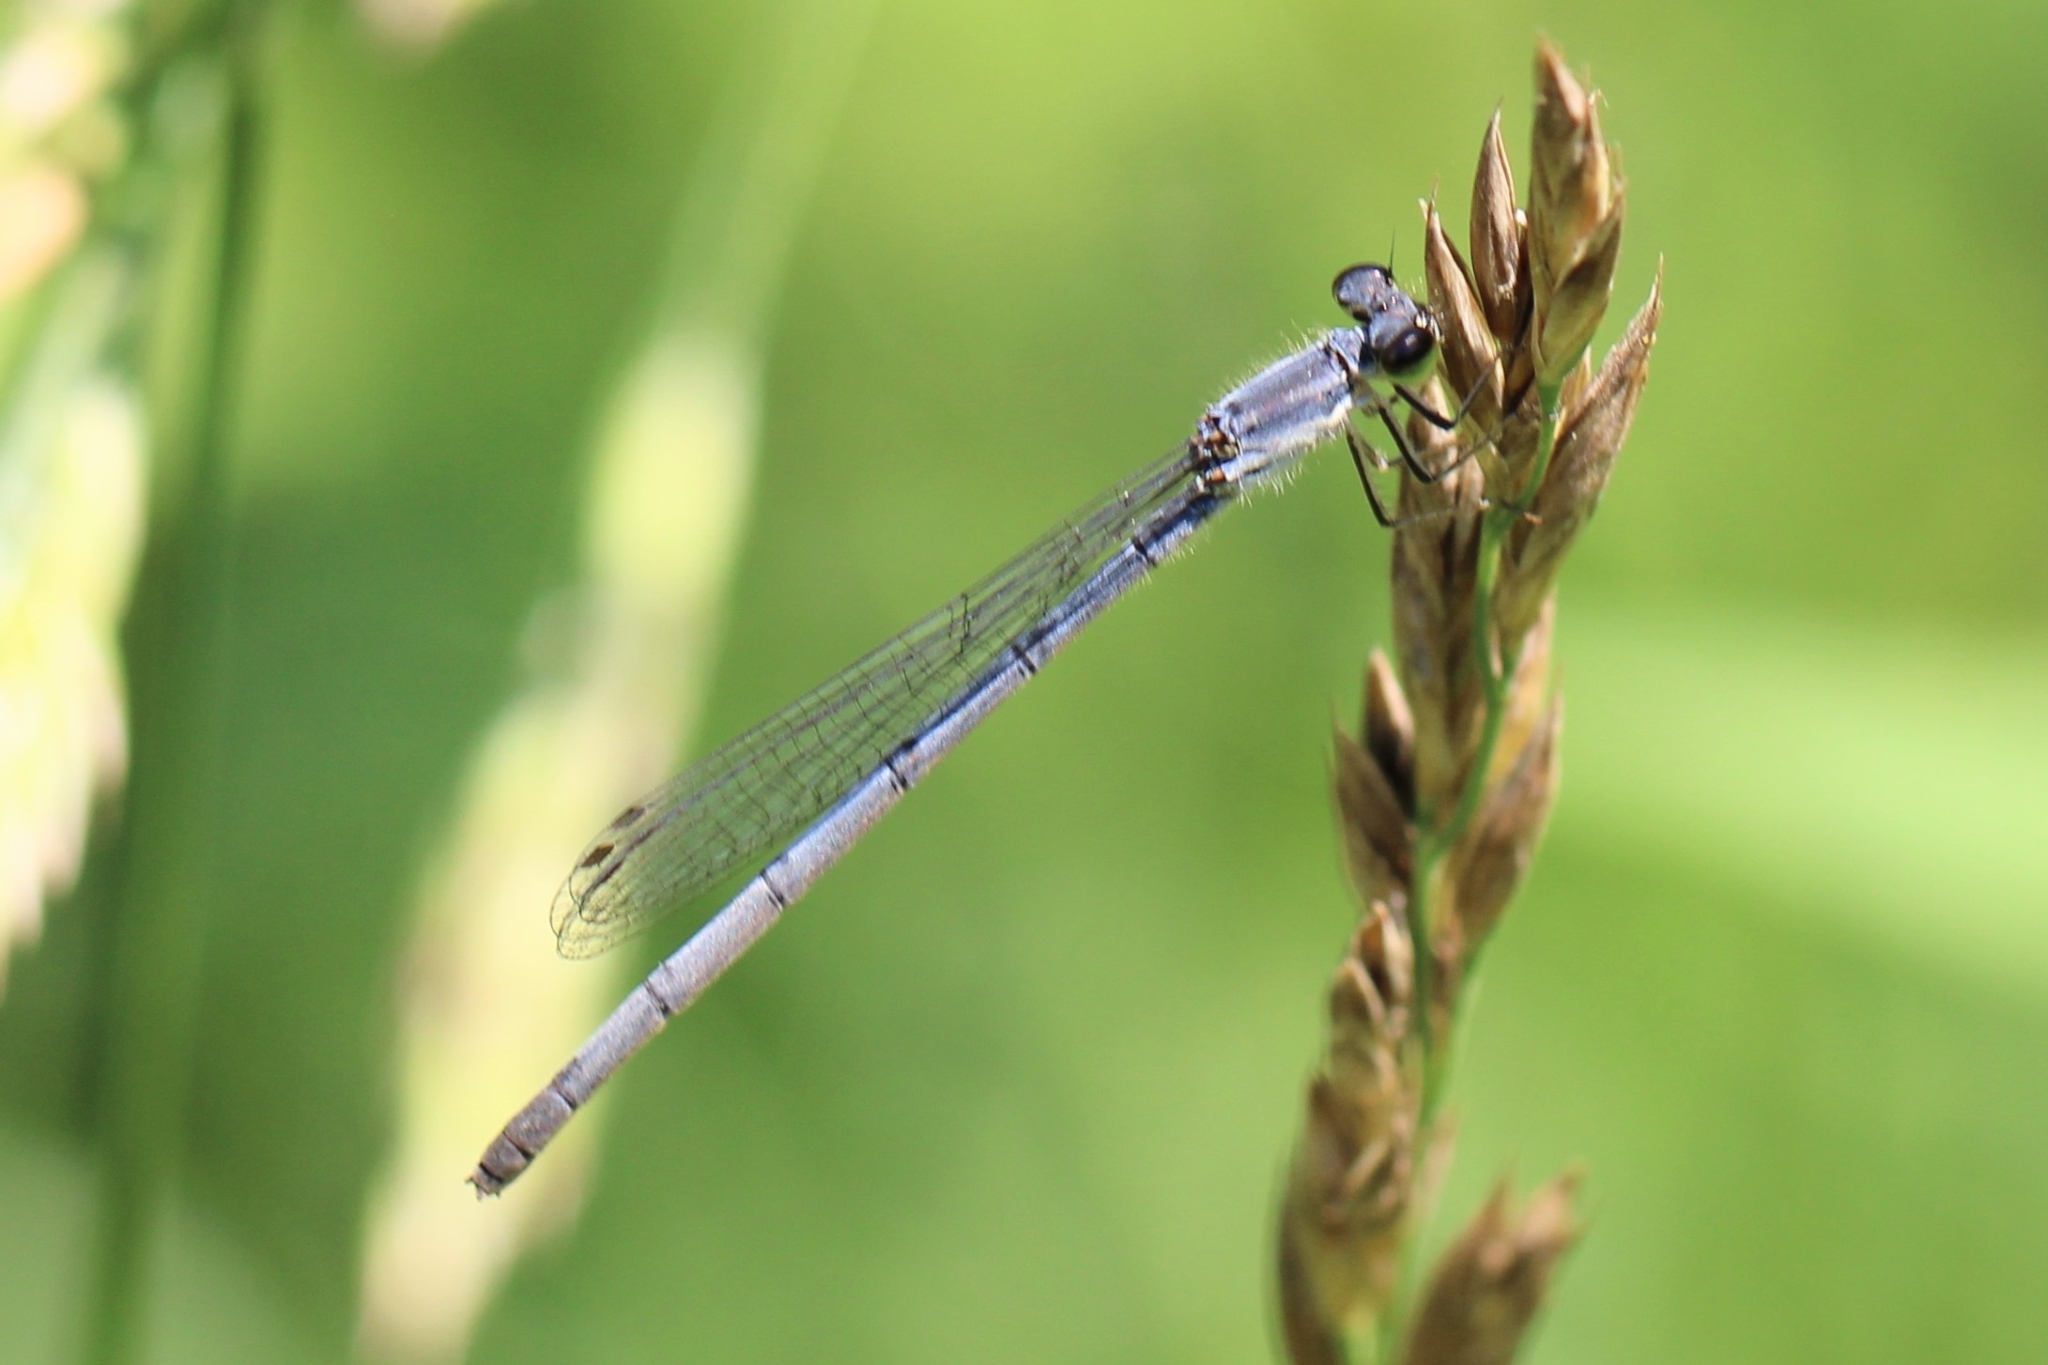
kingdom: Animalia
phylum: Arthropoda
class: Insecta
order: Odonata
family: Coenagrionidae
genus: Ischnura
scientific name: Ischnura posita
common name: Fragile forktail
